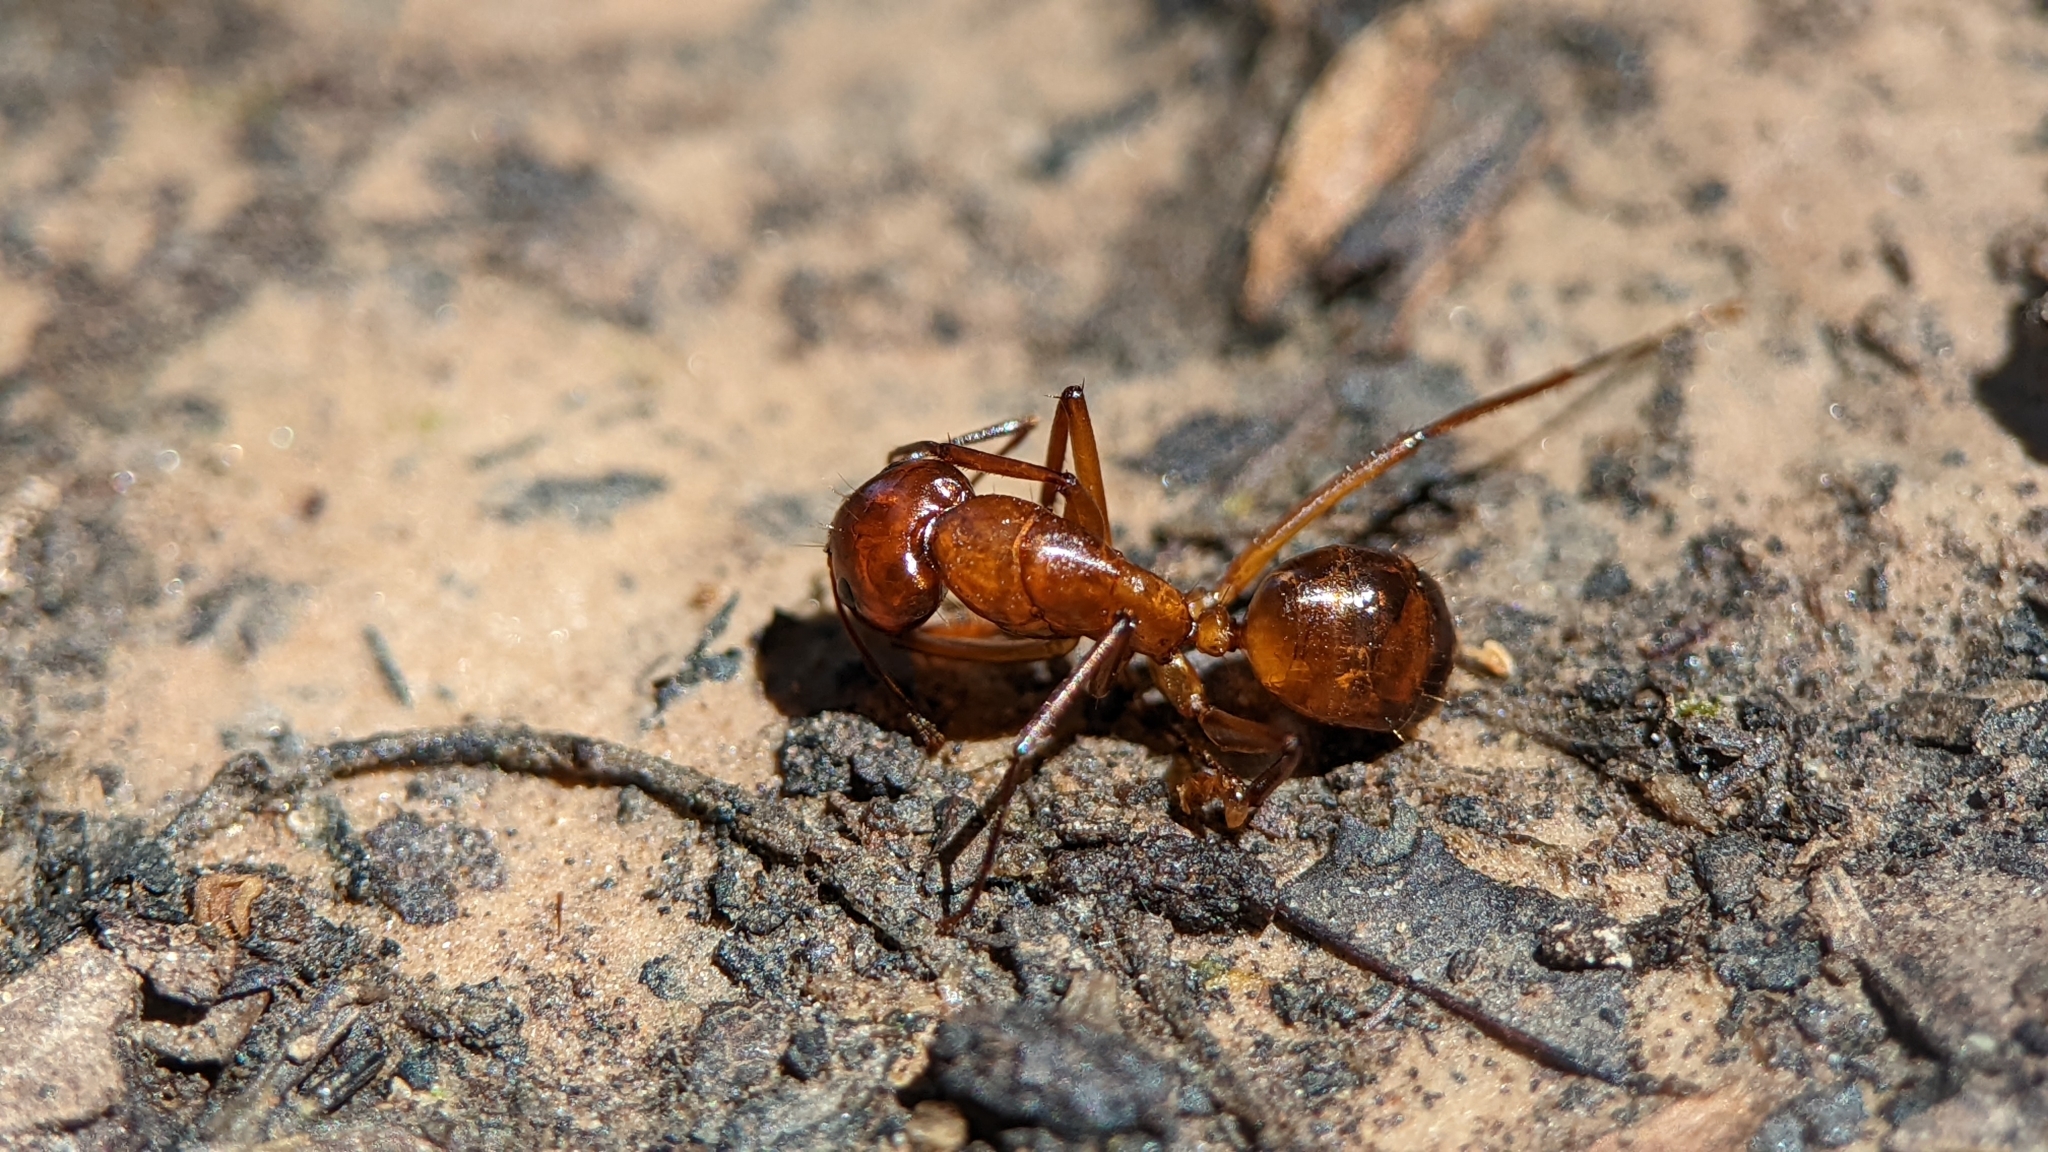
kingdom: Animalia
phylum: Arthropoda
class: Insecta
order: Hymenoptera
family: Formicidae
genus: Camponotus
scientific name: Camponotus castaneus
